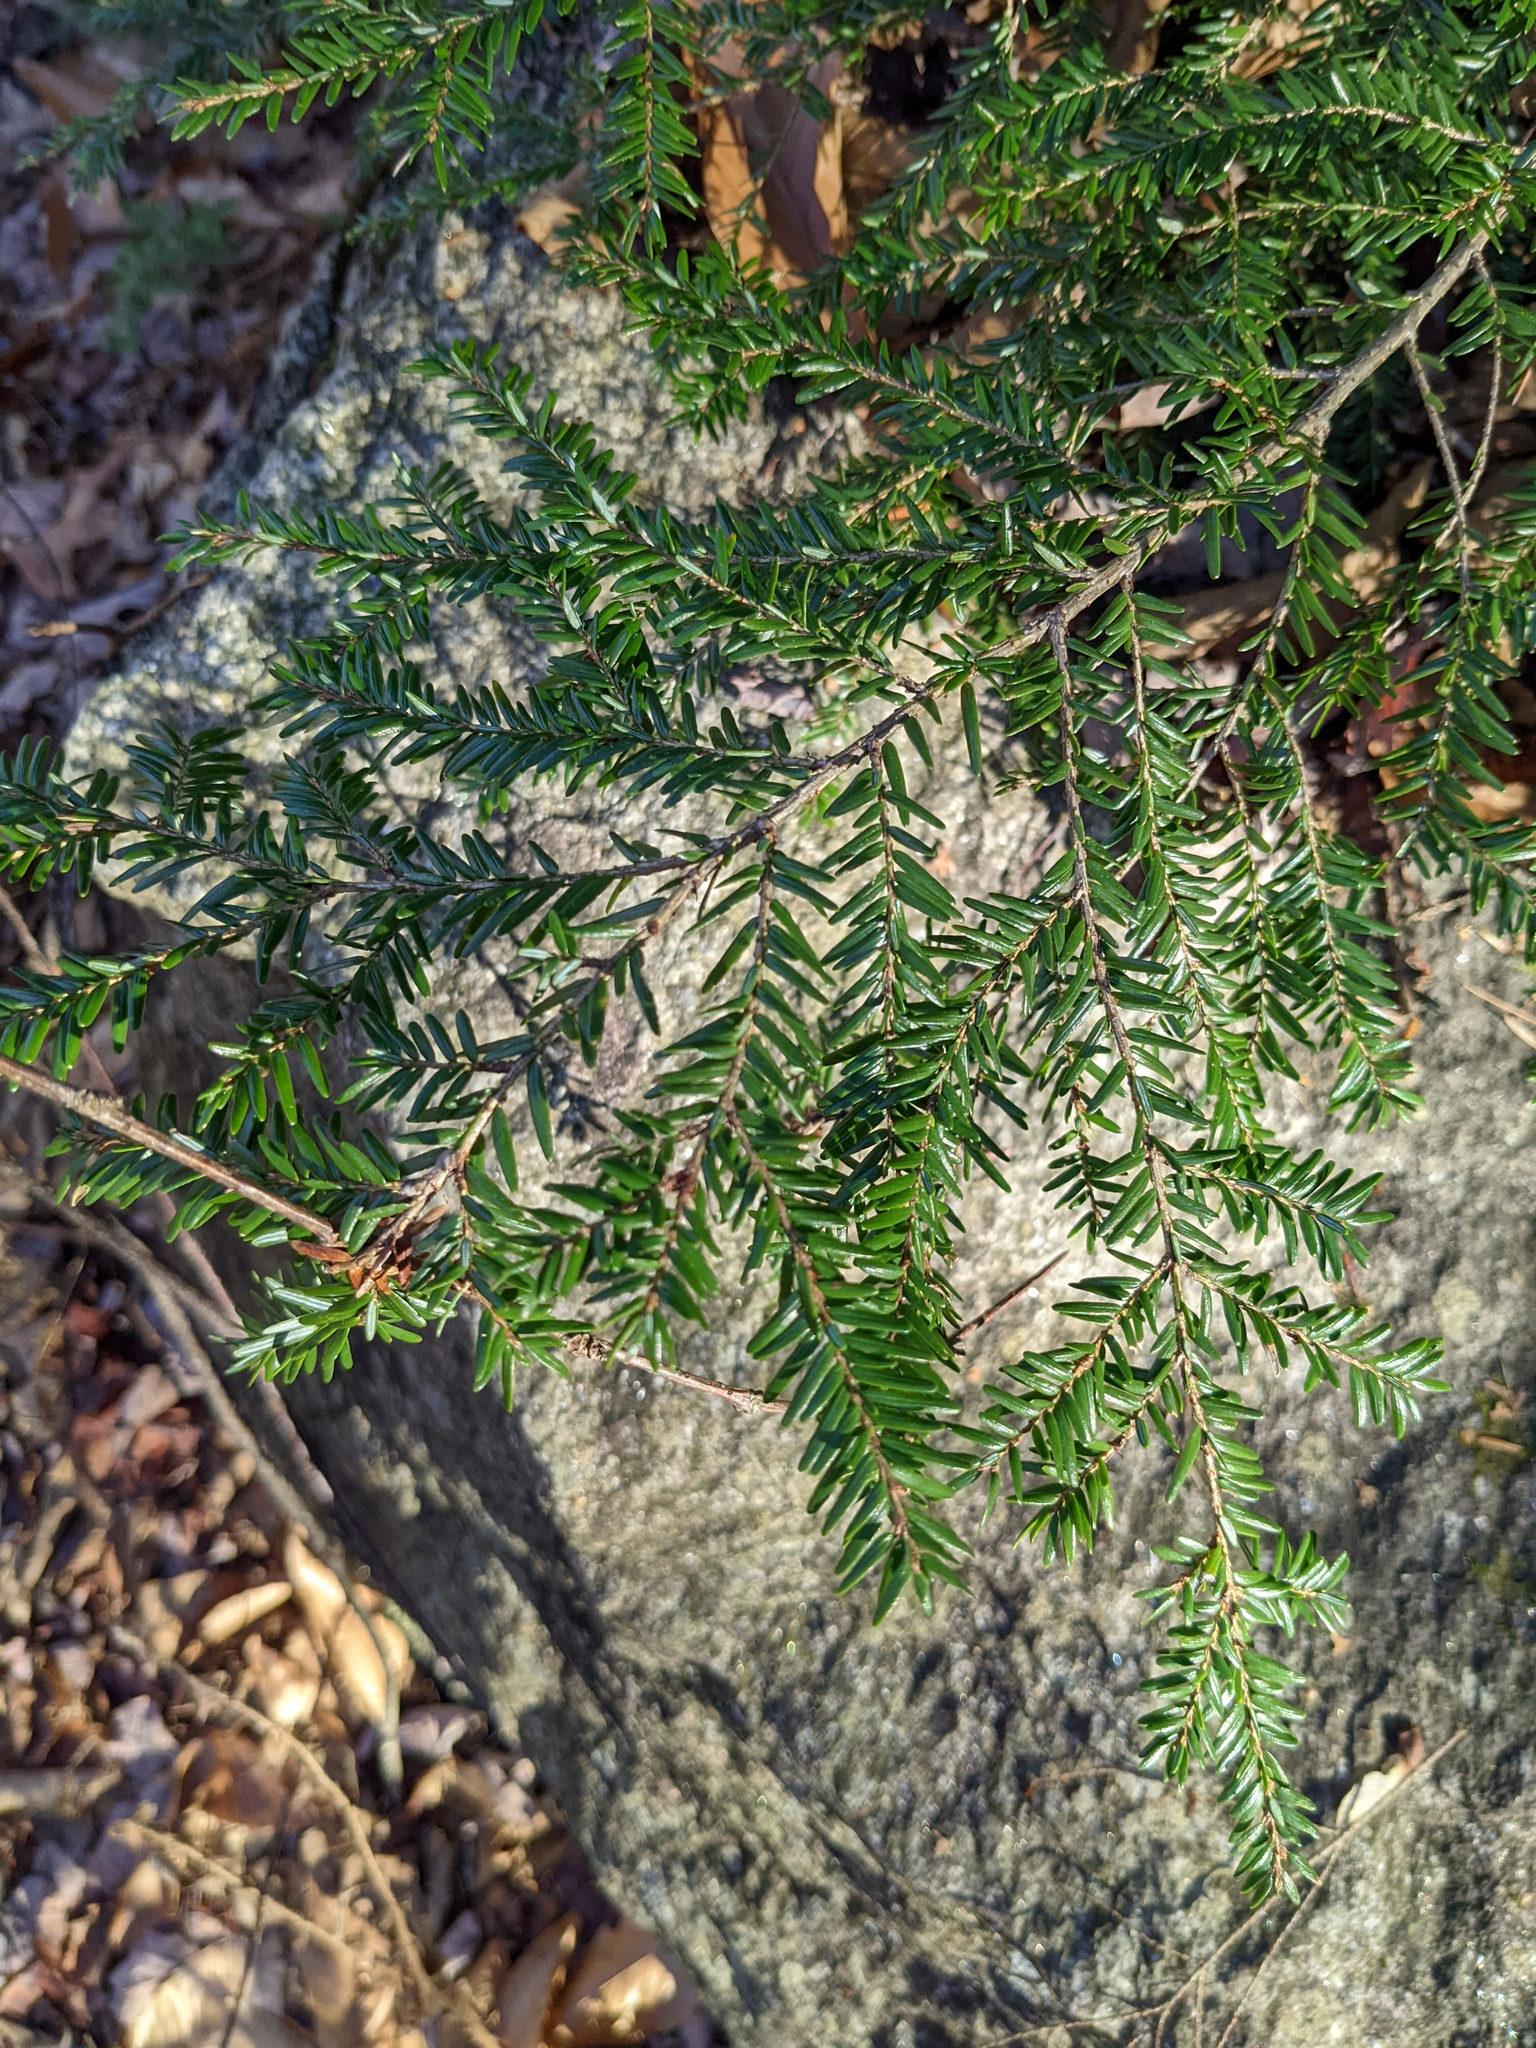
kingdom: Plantae
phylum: Tracheophyta
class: Pinopsida
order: Pinales
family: Pinaceae
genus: Tsuga
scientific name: Tsuga canadensis
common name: Eastern hemlock
